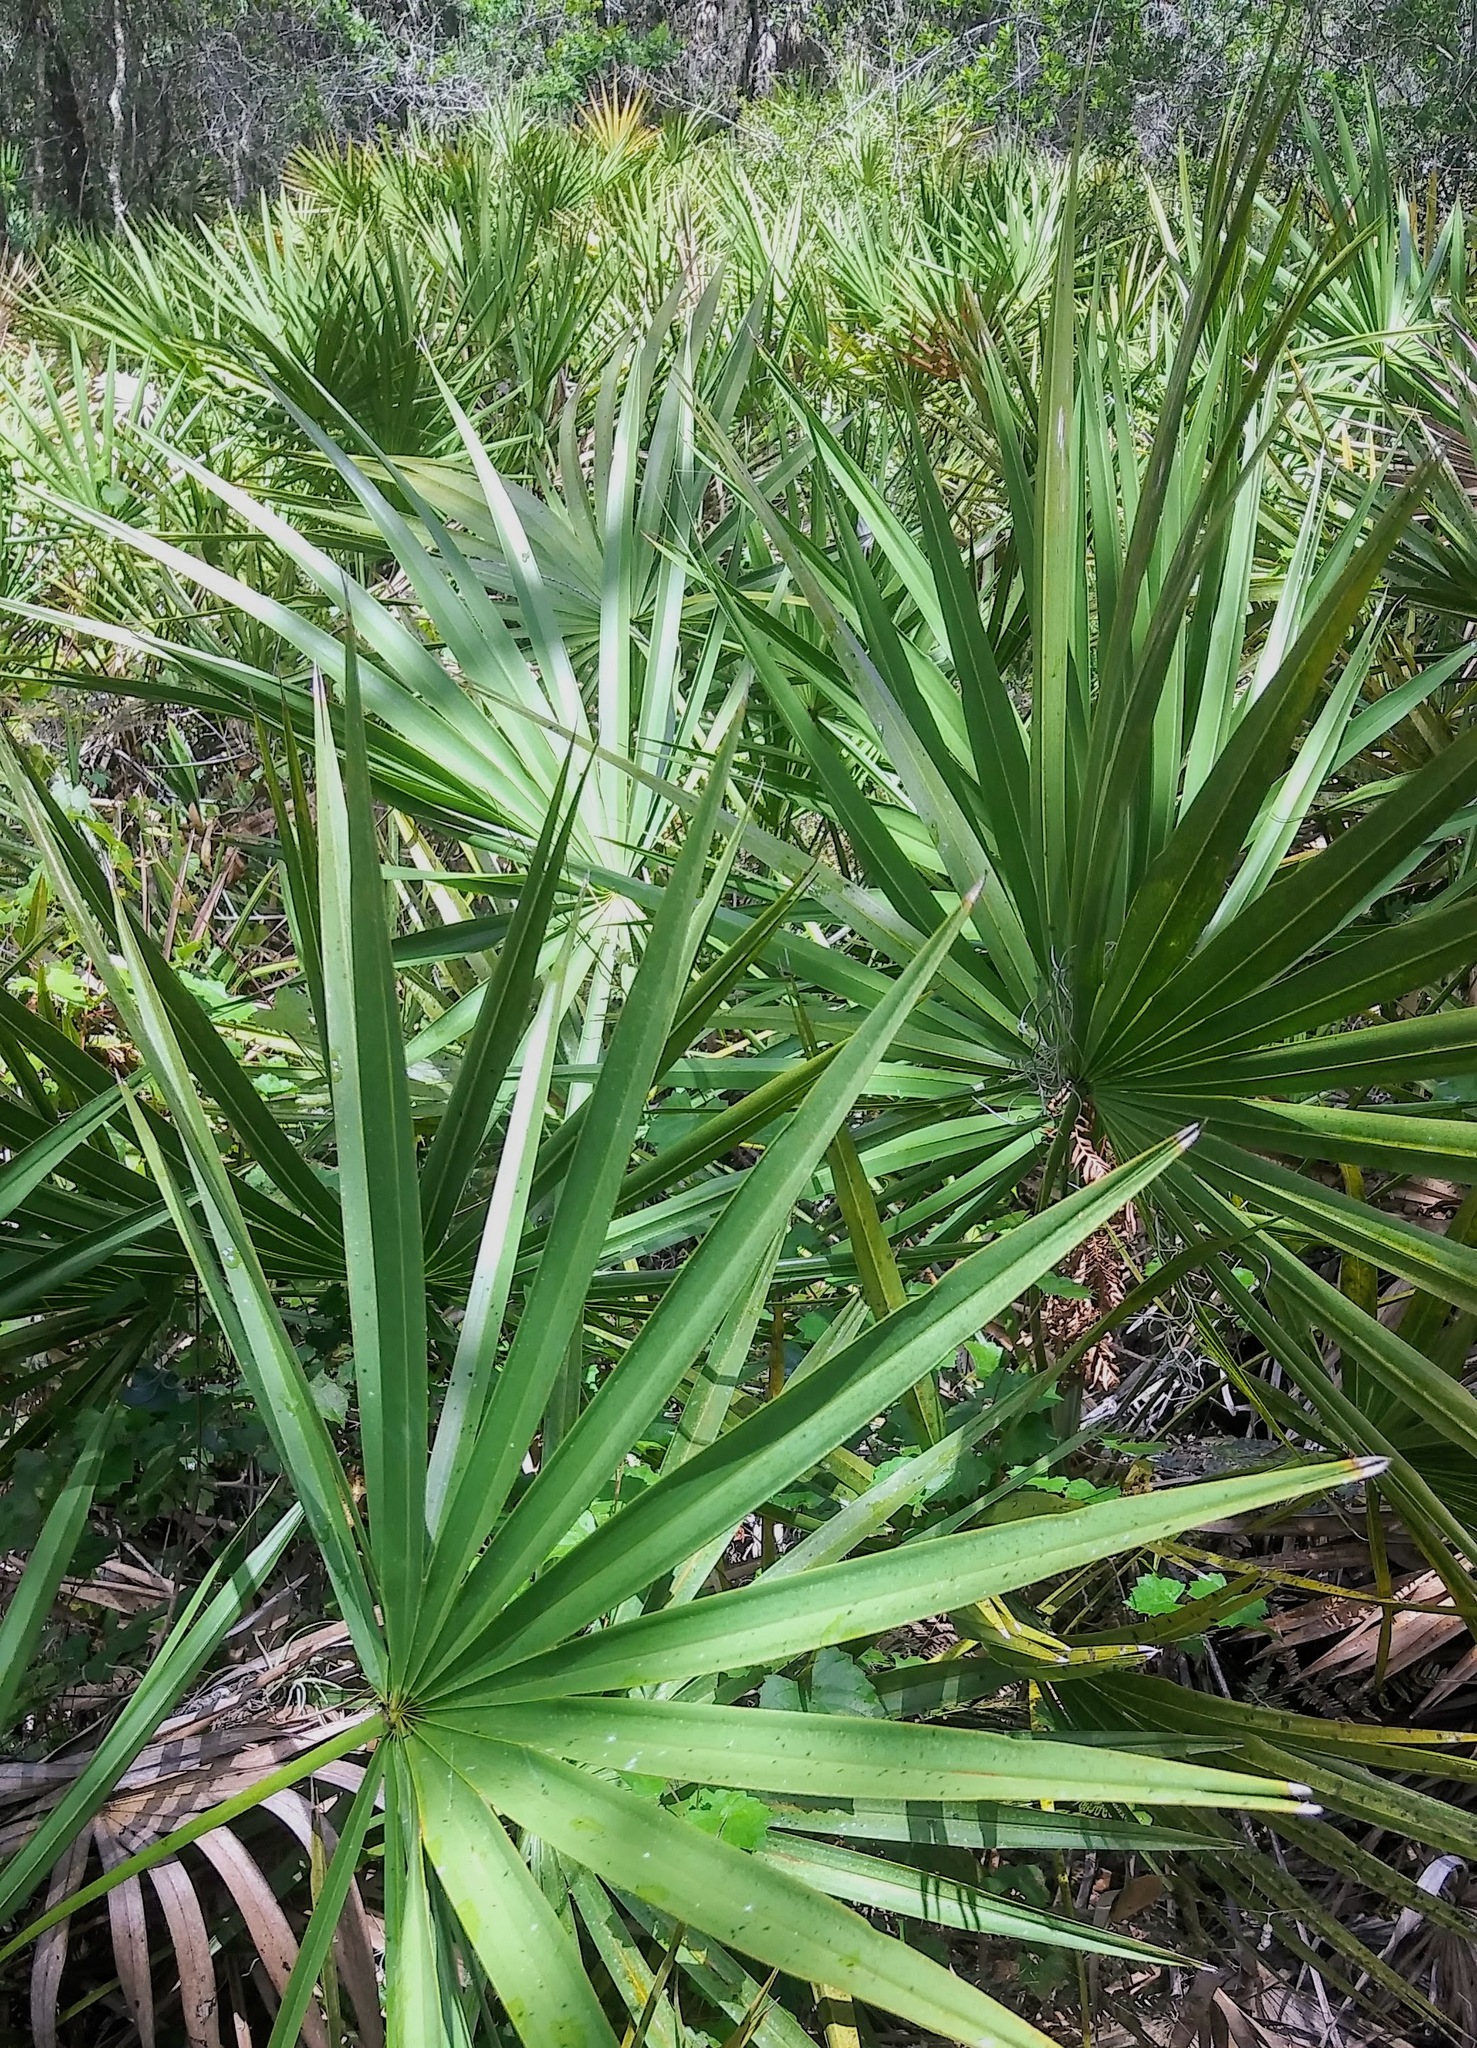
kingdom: Plantae
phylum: Tracheophyta
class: Liliopsida
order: Arecales
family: Arecaceae
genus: Serenoa
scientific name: Serenoa repens
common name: Saw-palmetto
